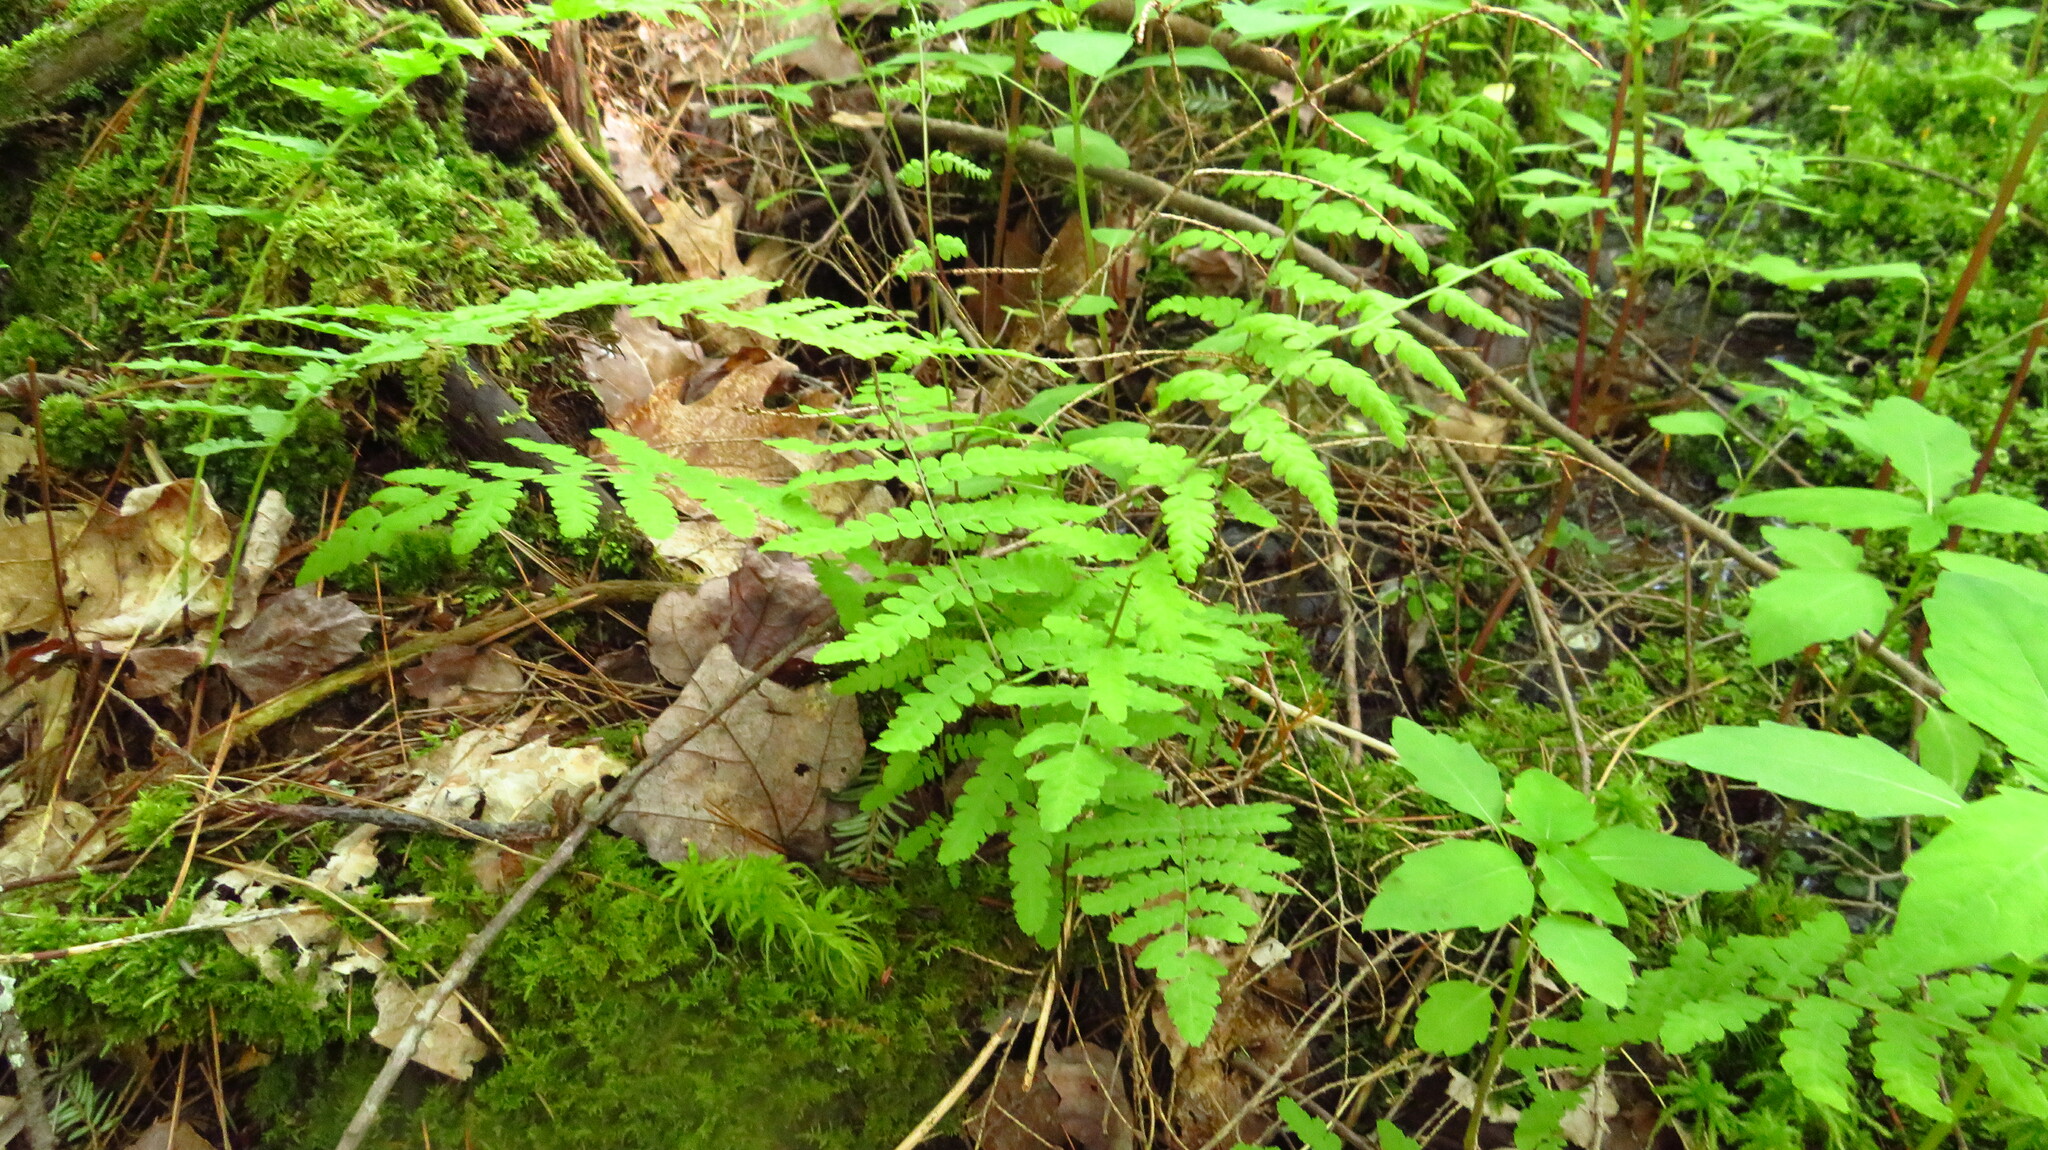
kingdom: Plantae
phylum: Tracheophyta
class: Polypodiopsida
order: Polypodiales
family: Thelypteridaceae
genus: Thelypteris
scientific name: Thelypteris palustris
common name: Marsh fern
